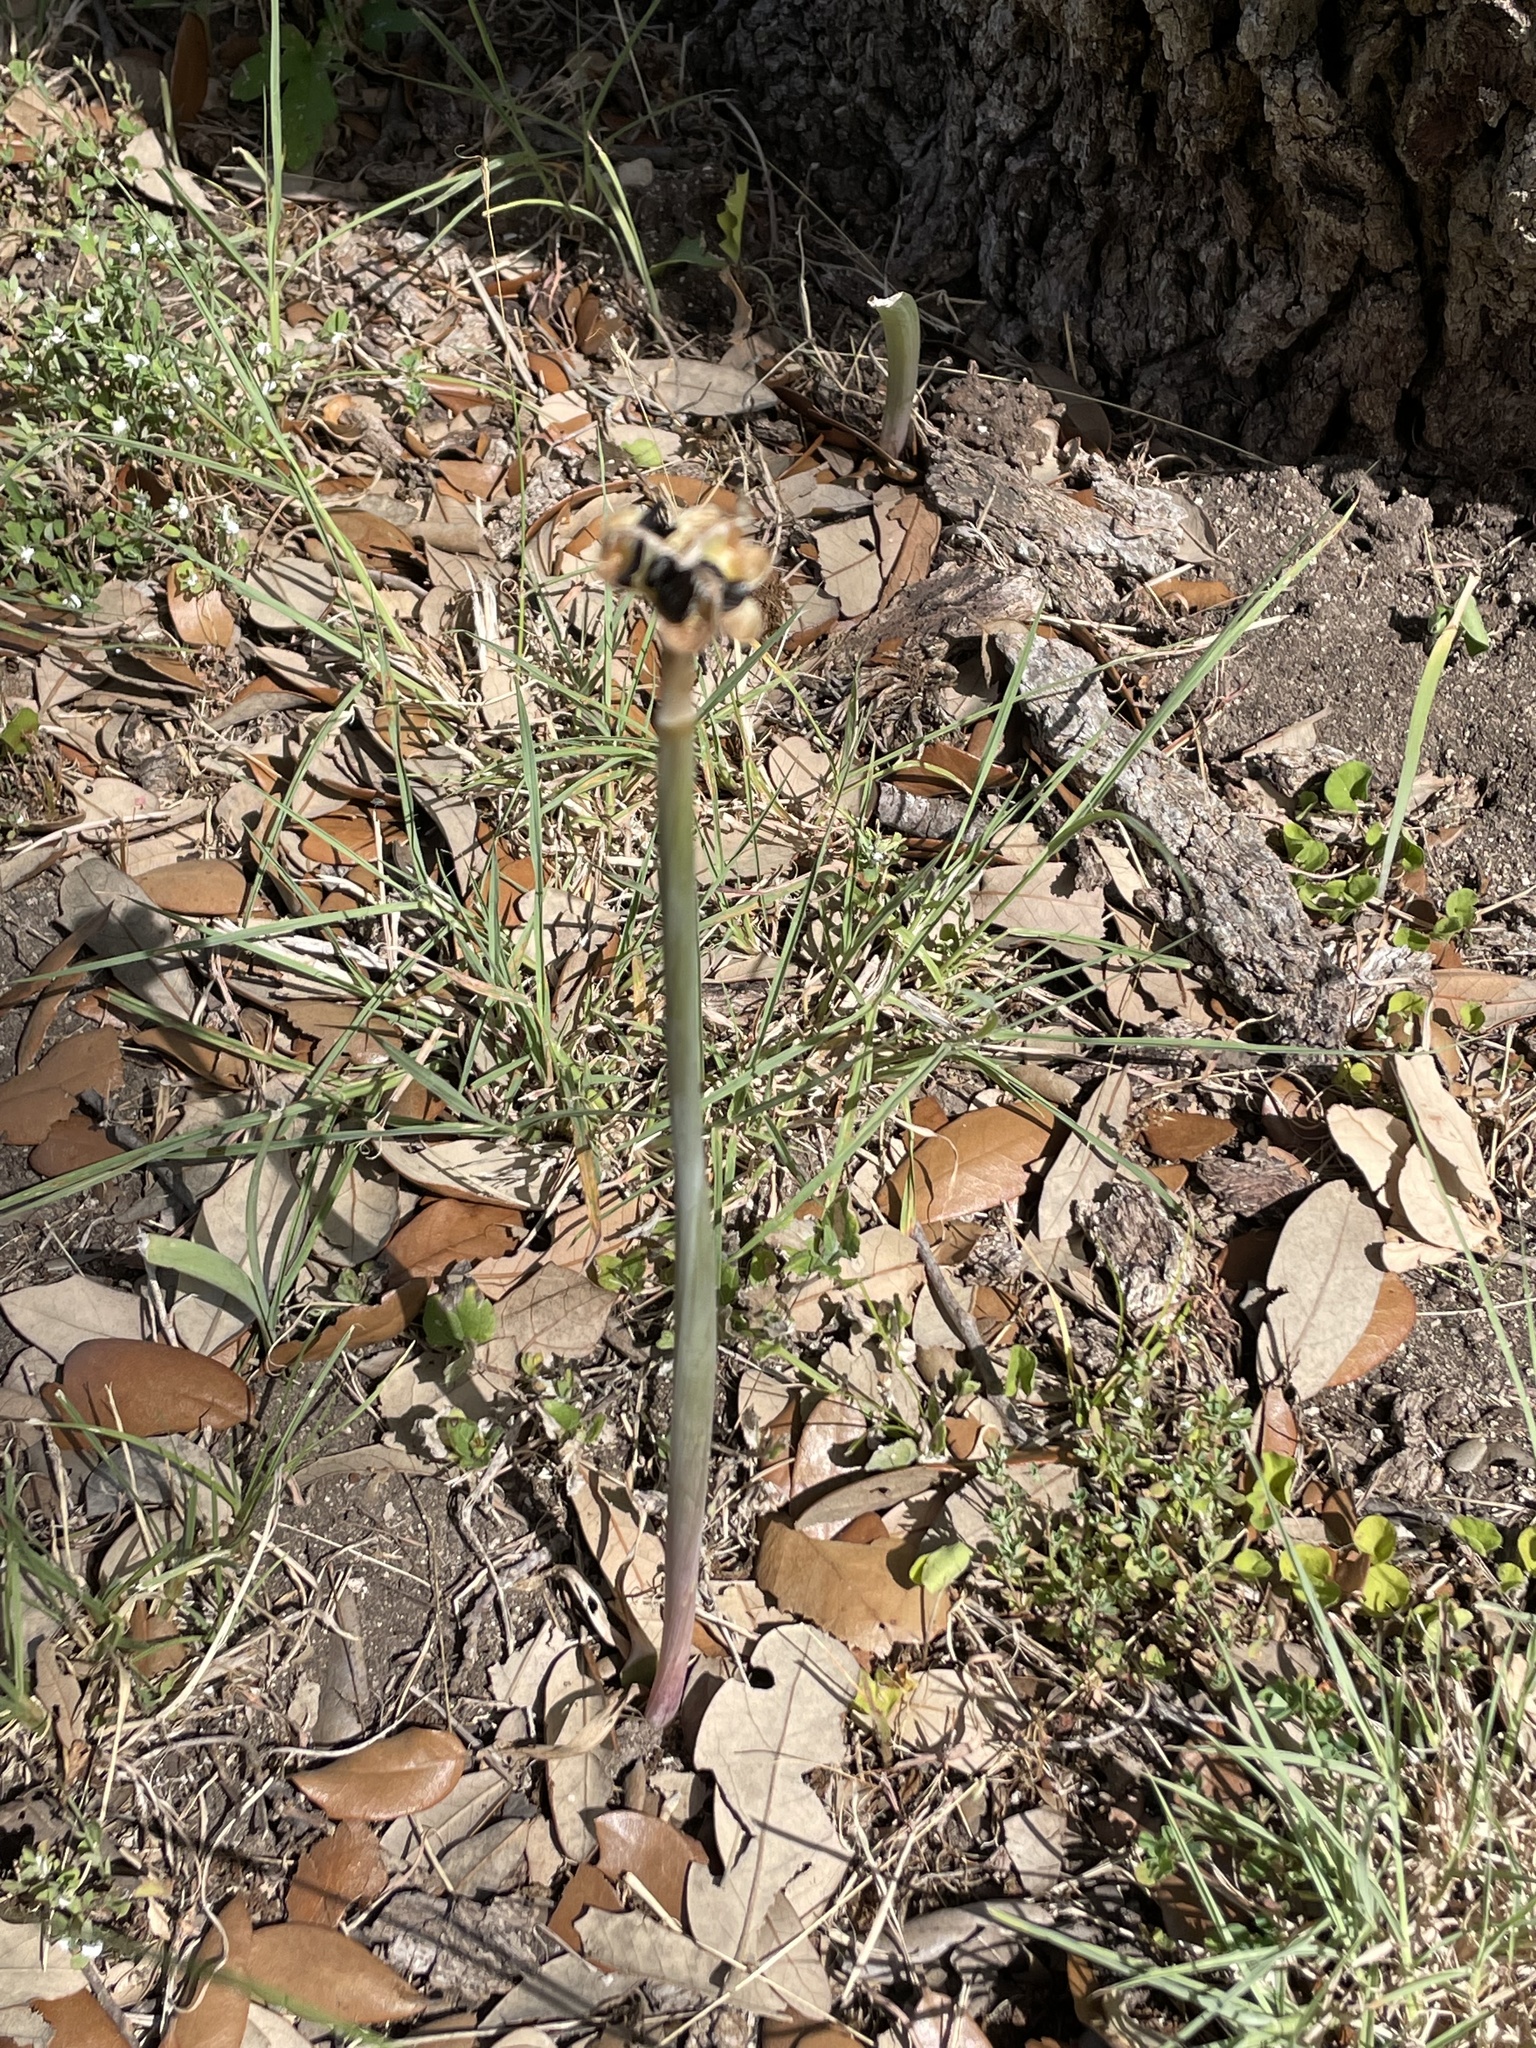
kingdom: Plantae
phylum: Tracheophyta
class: Liliopsida
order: Asparagales
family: Amaryllidaceae
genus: Zephyranthes
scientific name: Zephyranthes
